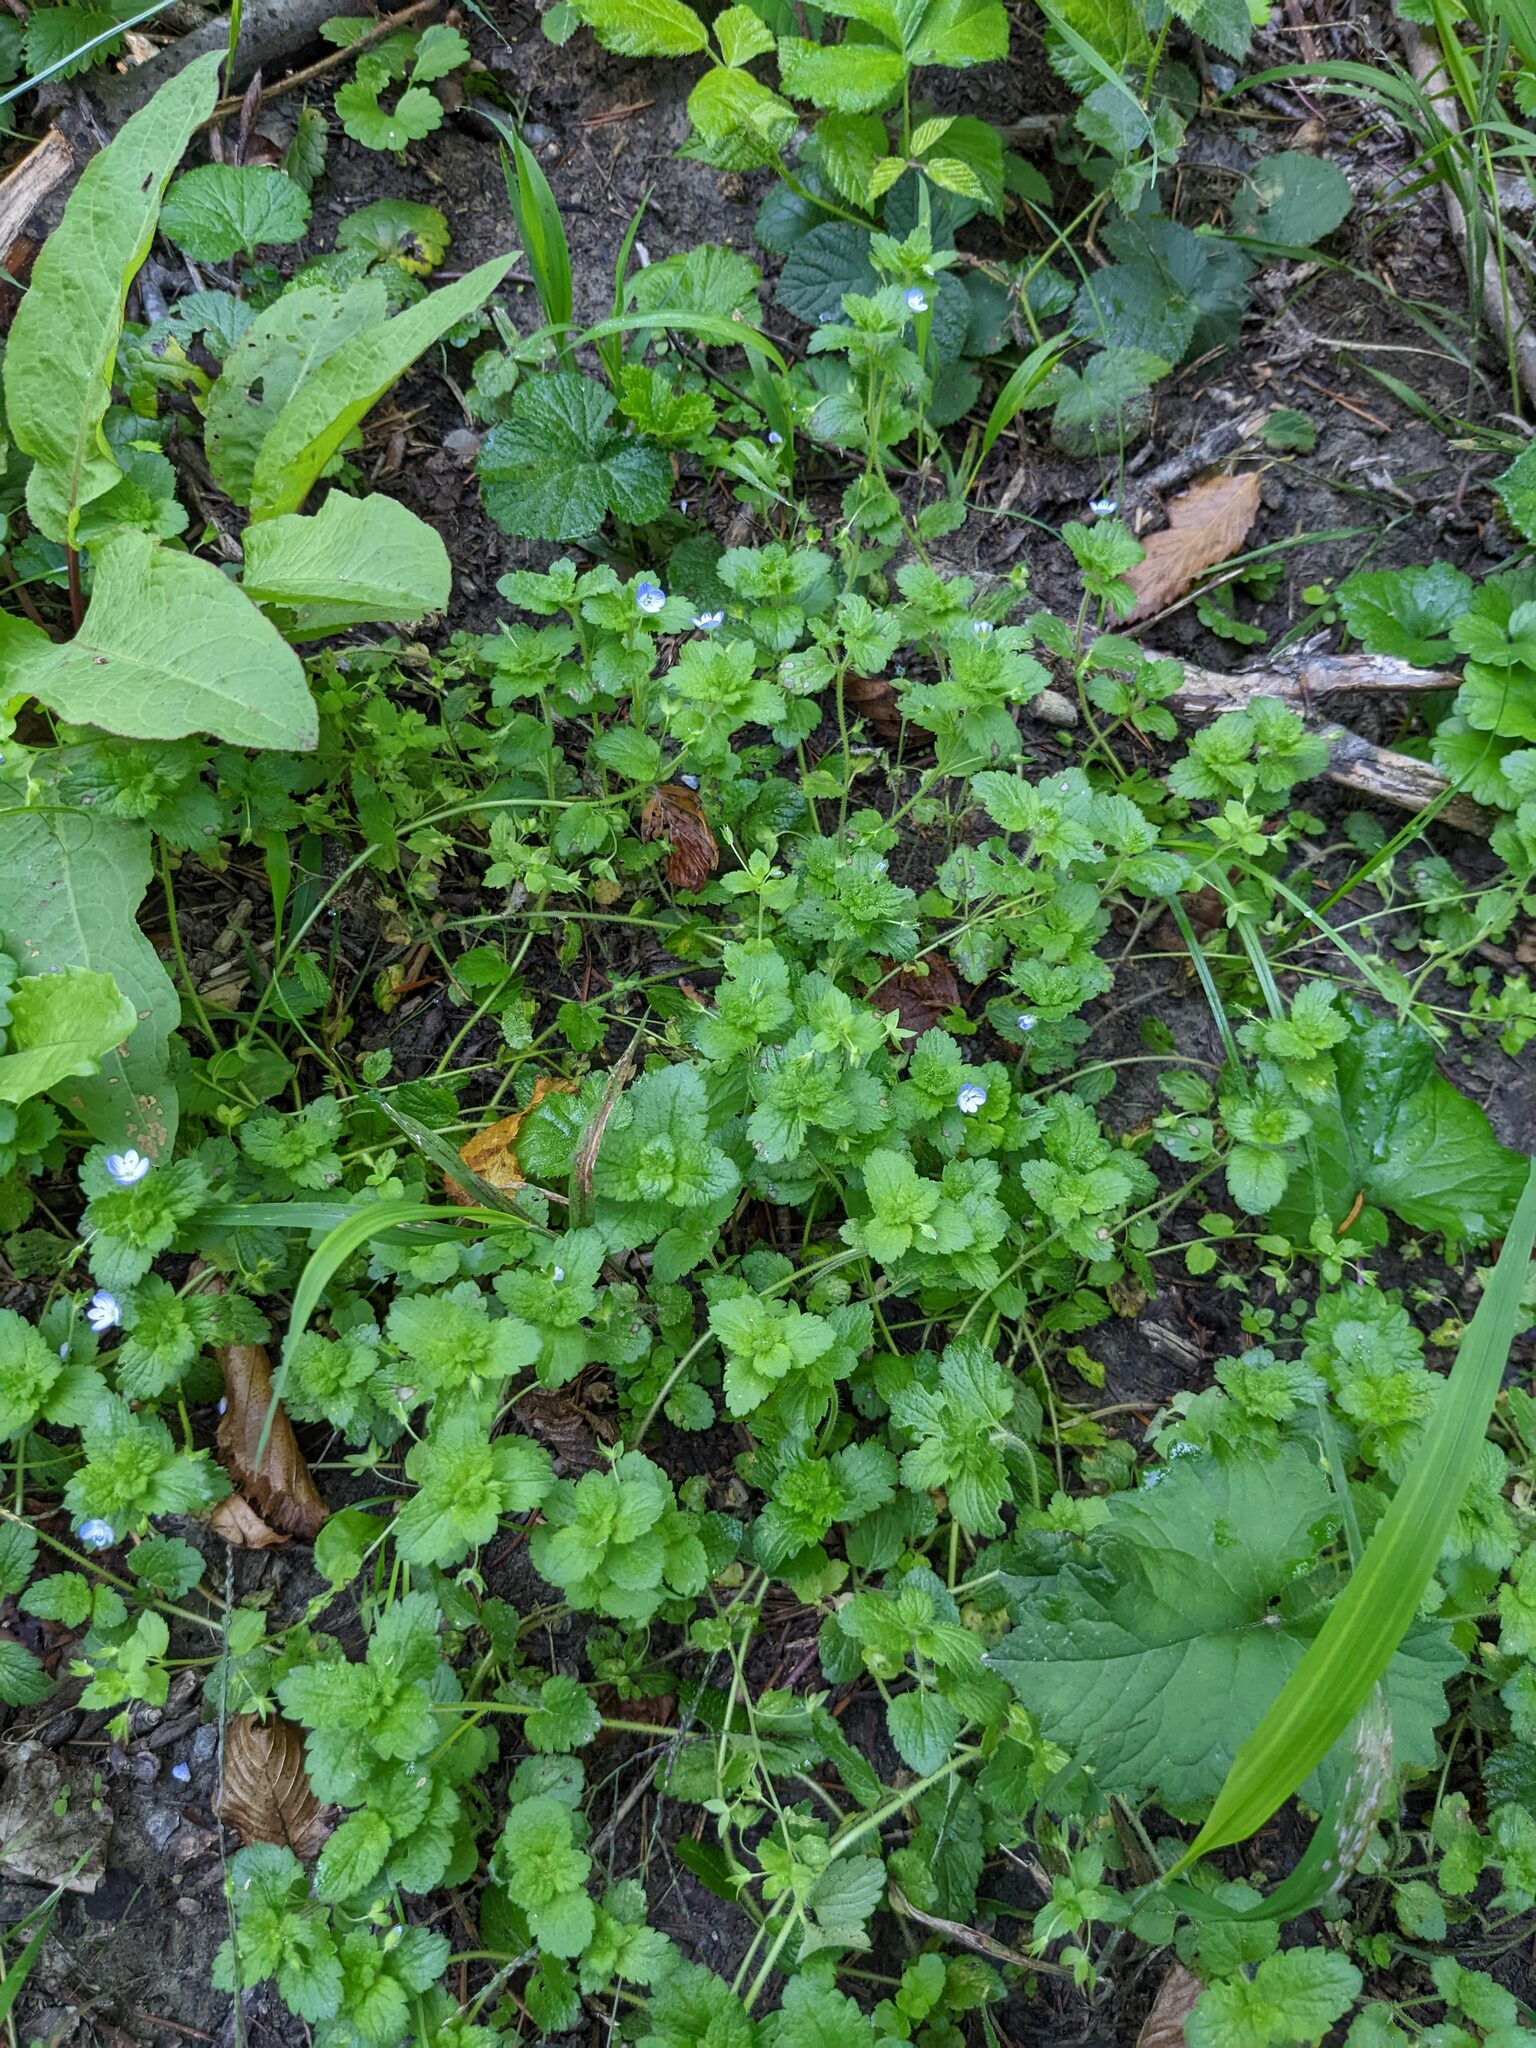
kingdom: Plantae
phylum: Tracheophyta
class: Magnoliopsida
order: Lamiales
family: Plantaginaceae
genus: Veronica
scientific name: Veronica persica
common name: Common field-speedwell
